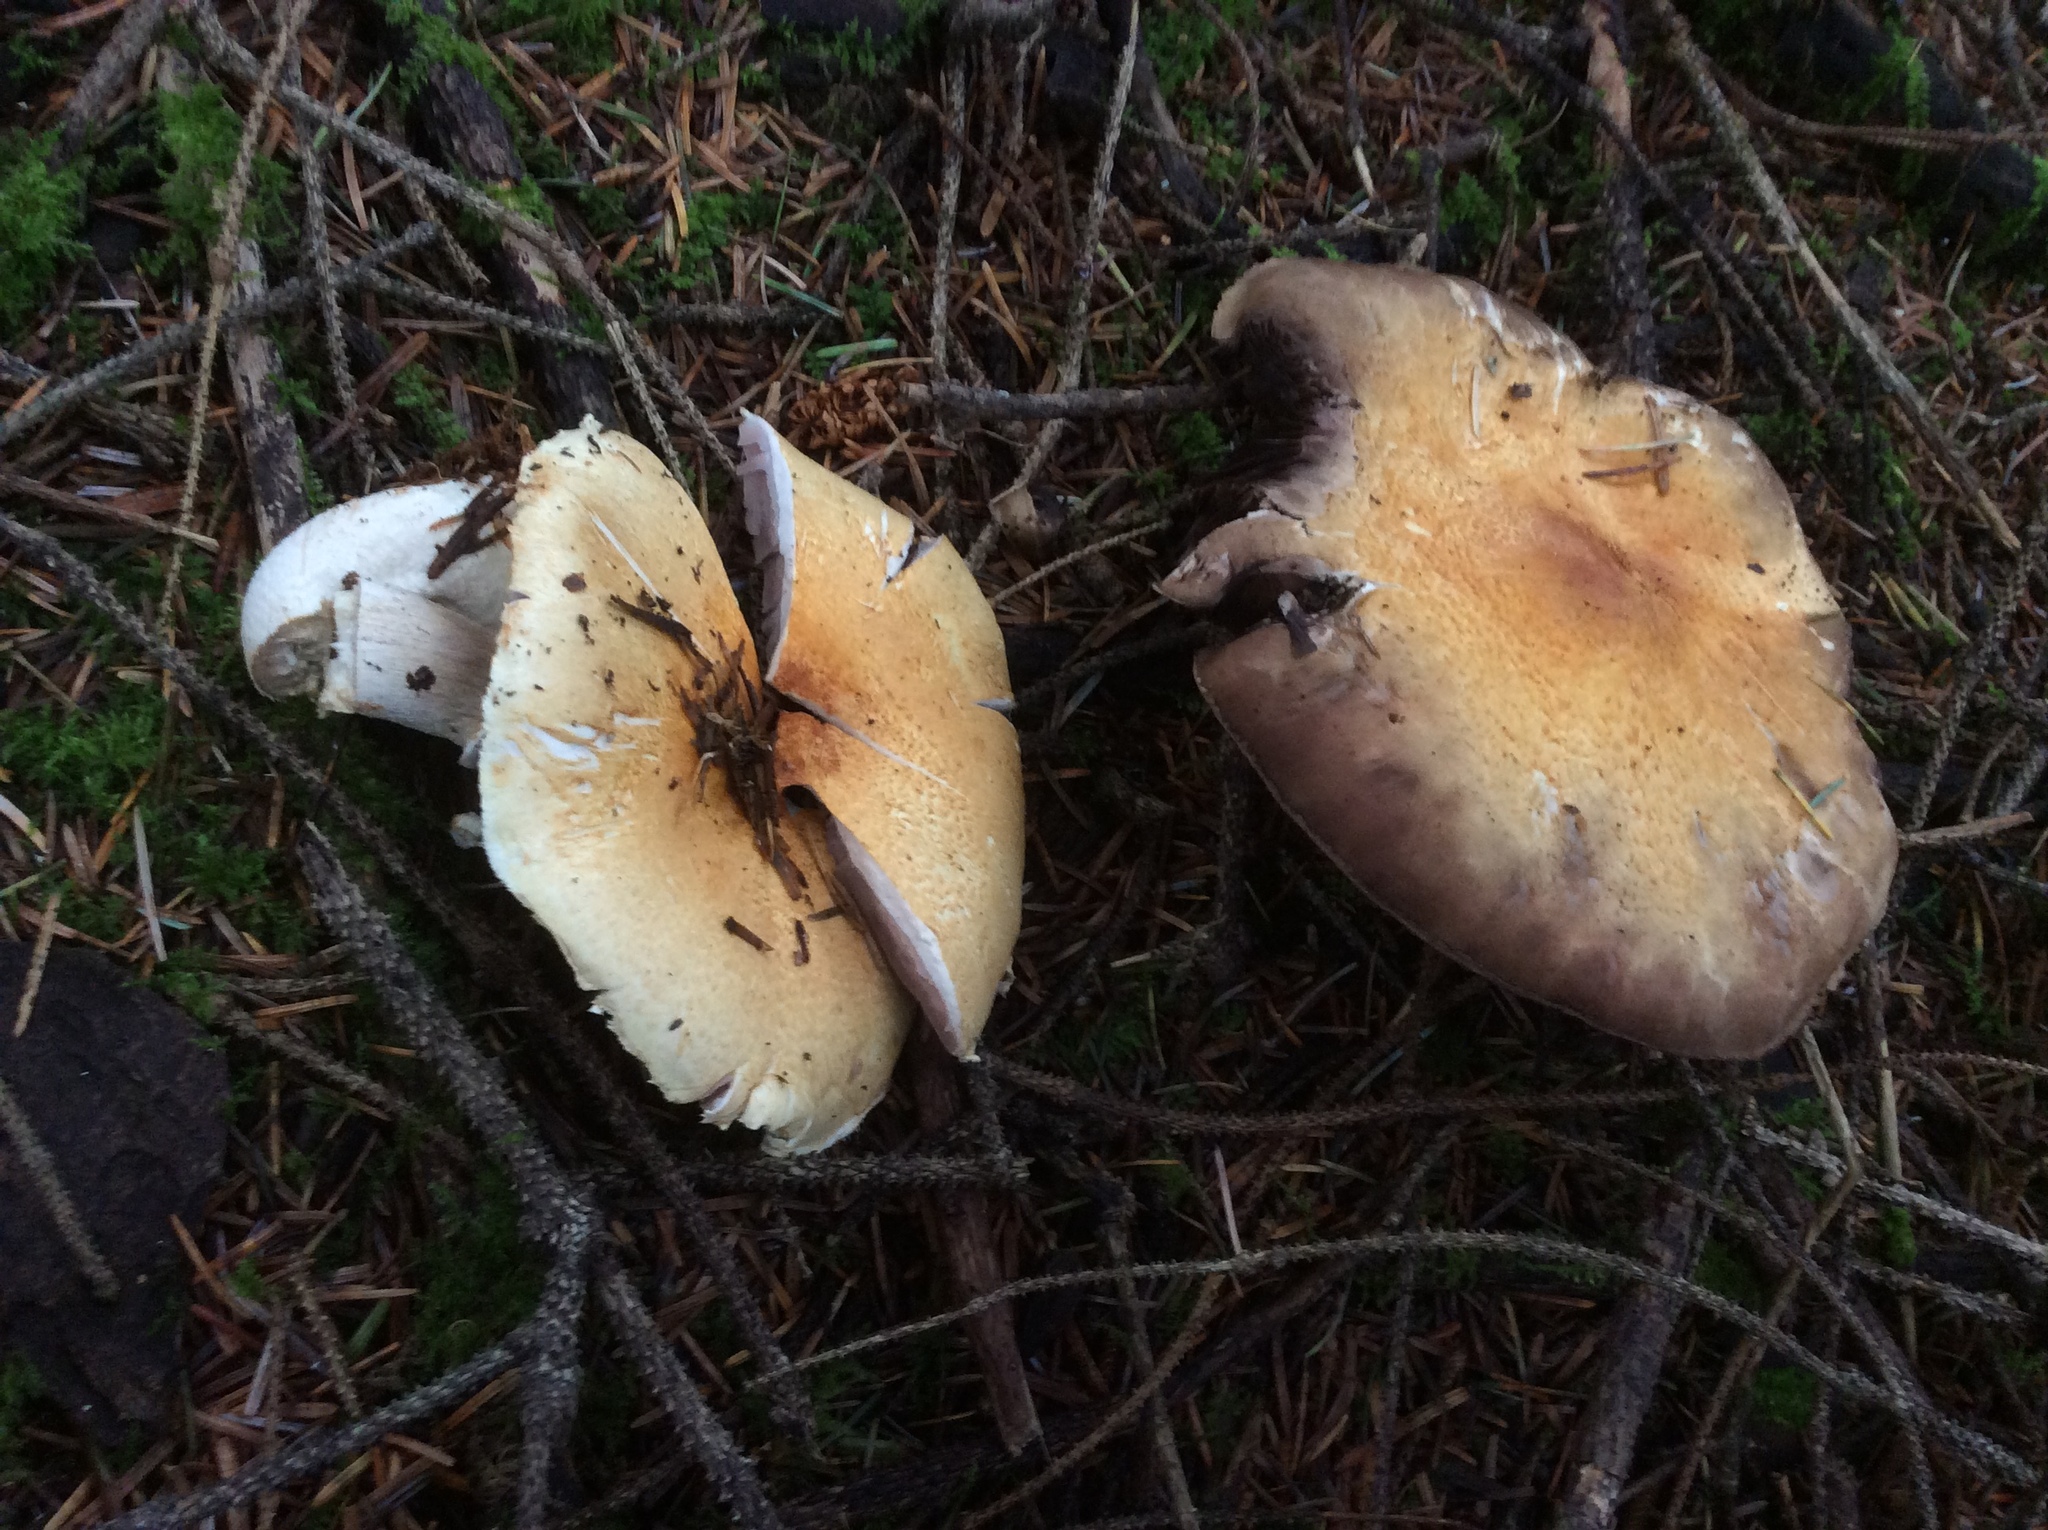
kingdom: Fungi
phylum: Basidiomycota
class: Agaricomycetes
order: Agaricales
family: Agaricaceae
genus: Agaricus
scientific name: Agaricus smithianus
